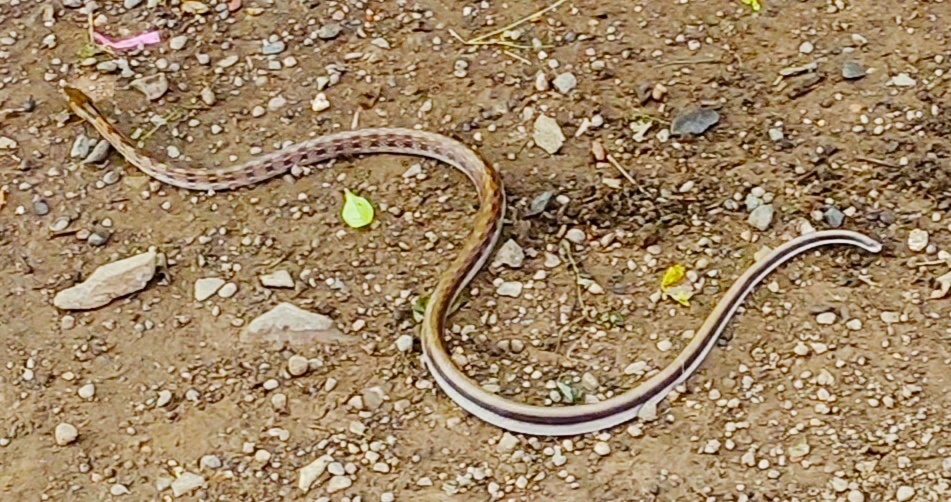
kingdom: Animalia
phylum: Chordata
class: Squamata
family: Colubridae
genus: Coelognathus
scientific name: Coelognathus helena
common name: Trinket snake
